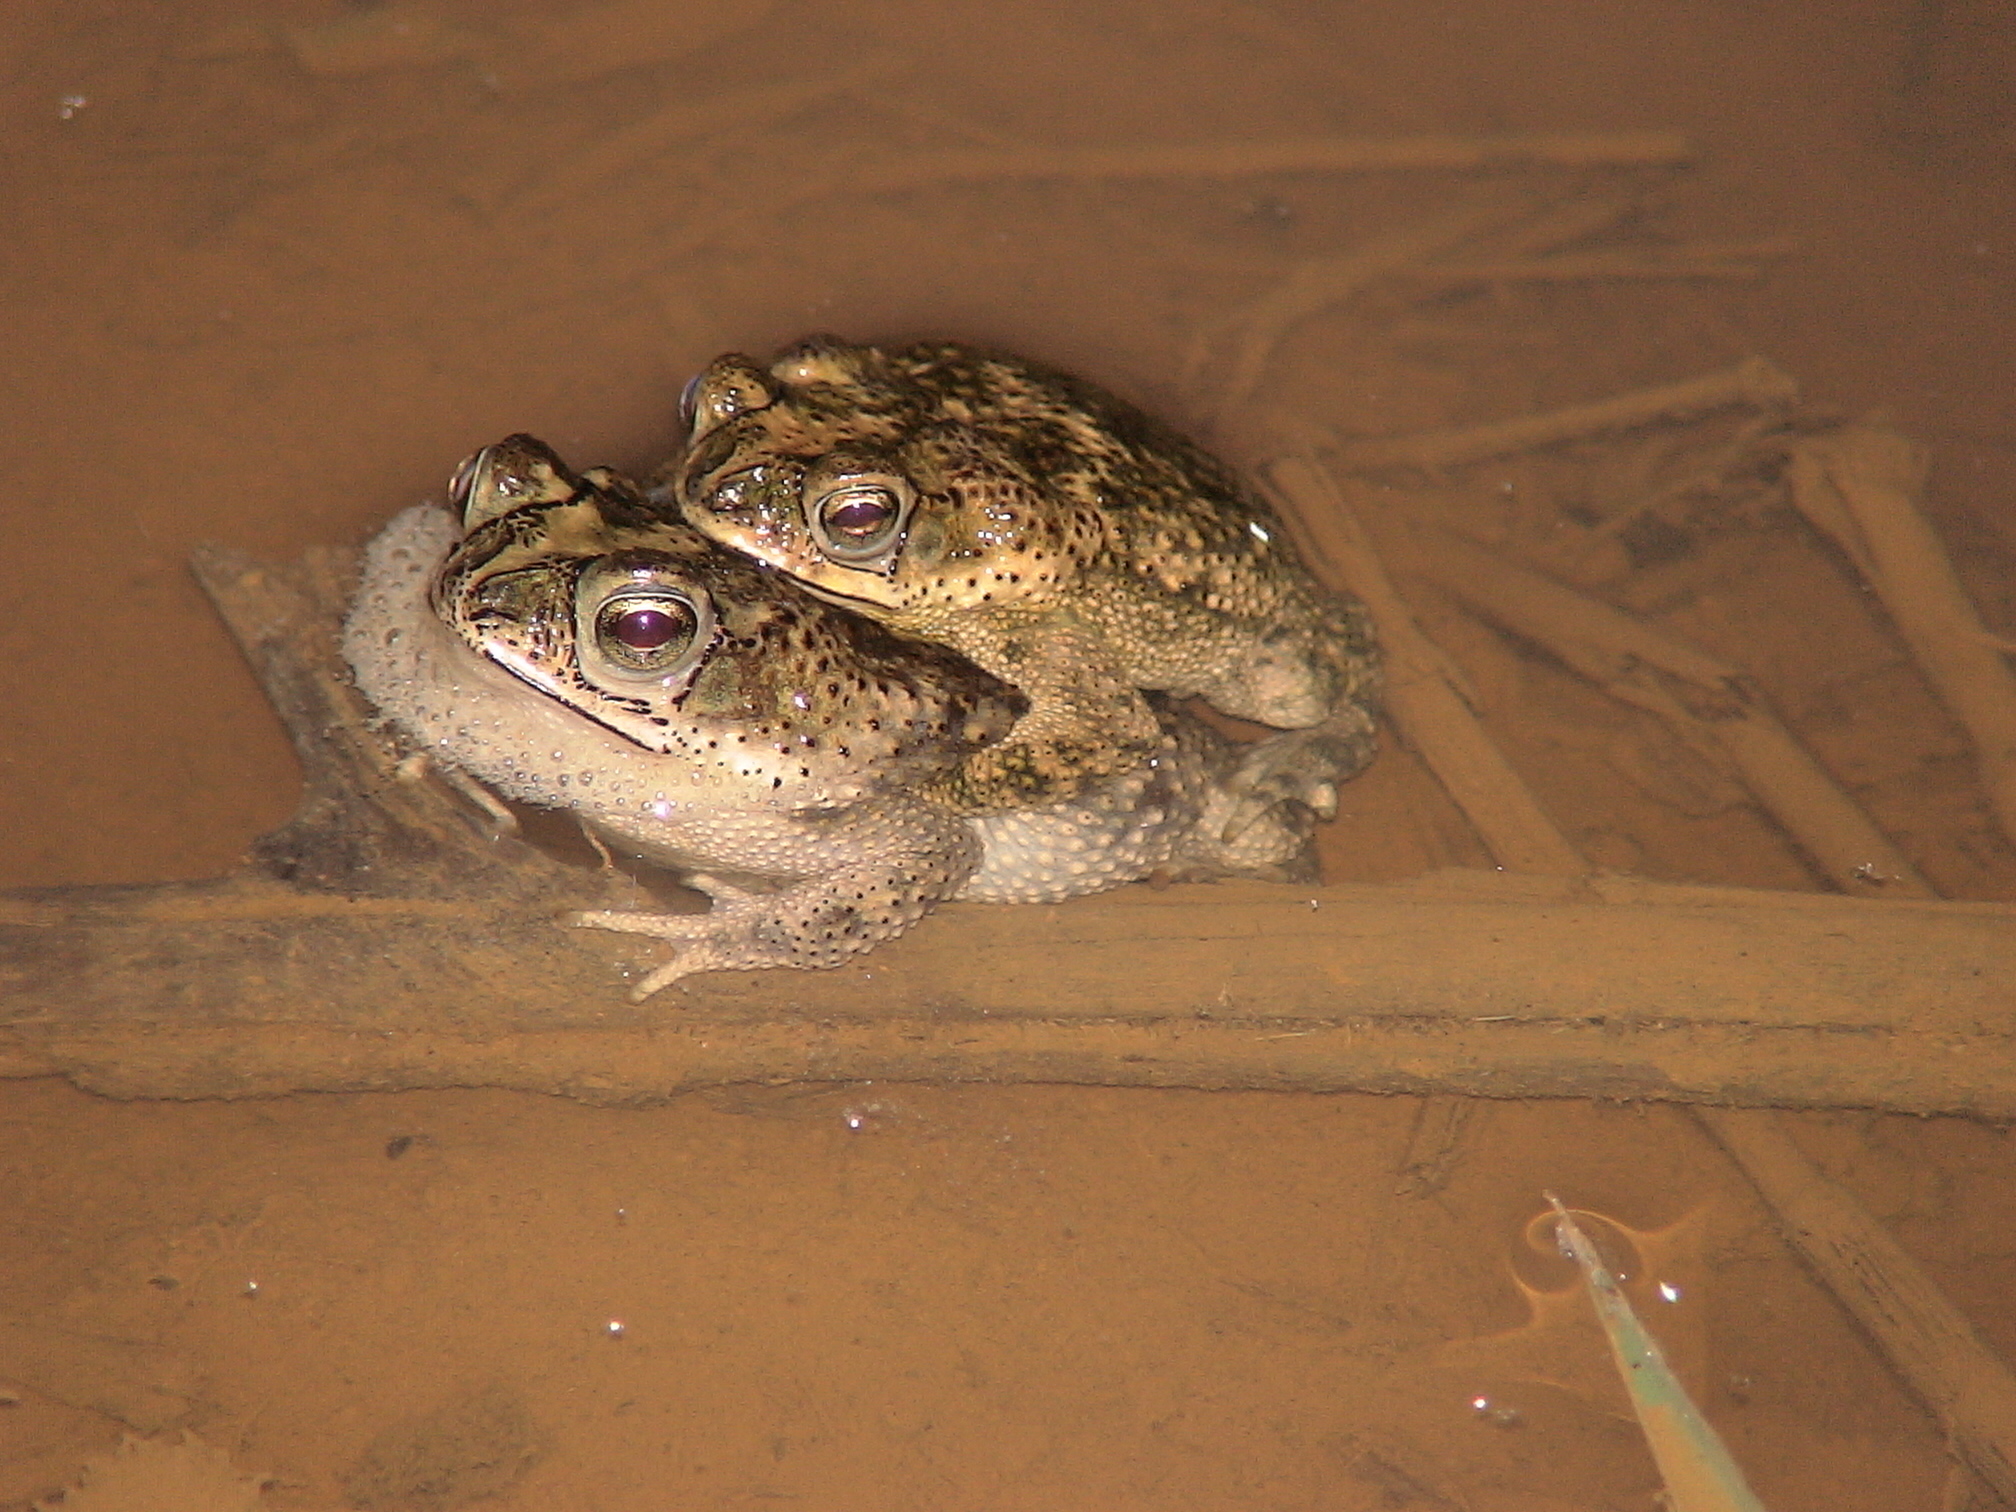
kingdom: Animalia
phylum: Chordata
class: Amphibia
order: Anura
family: Bufonidae
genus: Rhinella
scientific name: Rhinella major
